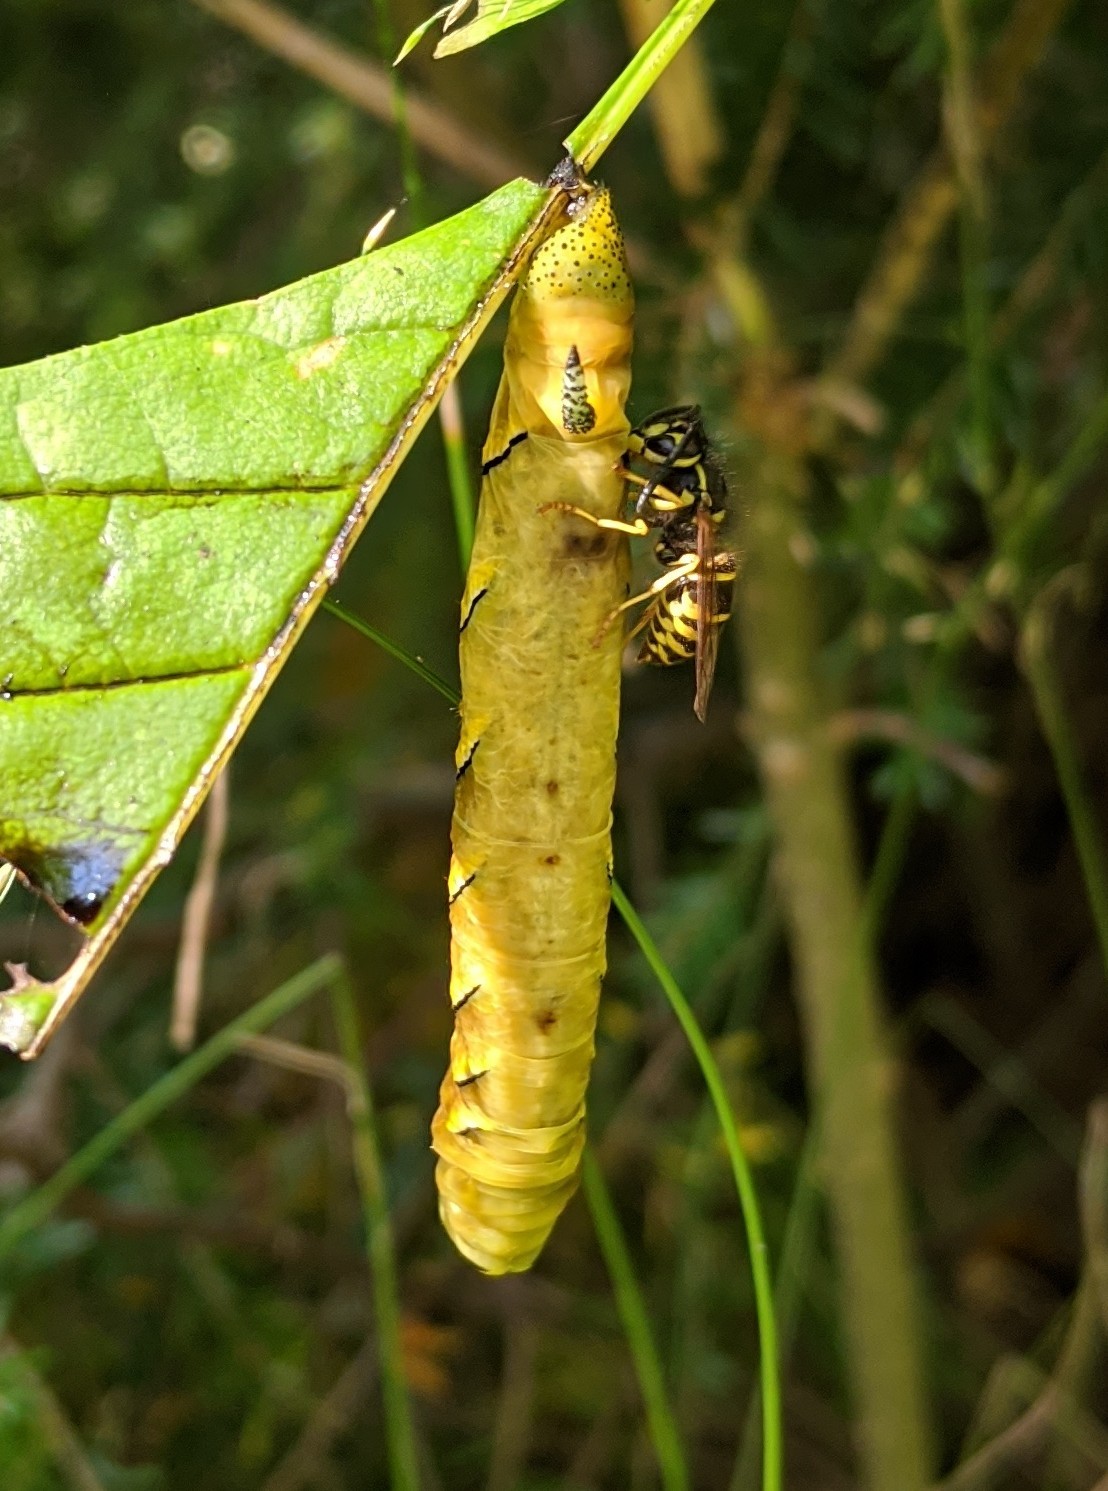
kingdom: Animalia
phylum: Arthropoda
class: Insecta
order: Lepidoptera
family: Sphingidae
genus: Sphinx
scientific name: Sphinx kalmiae
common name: Laurel sphinx
